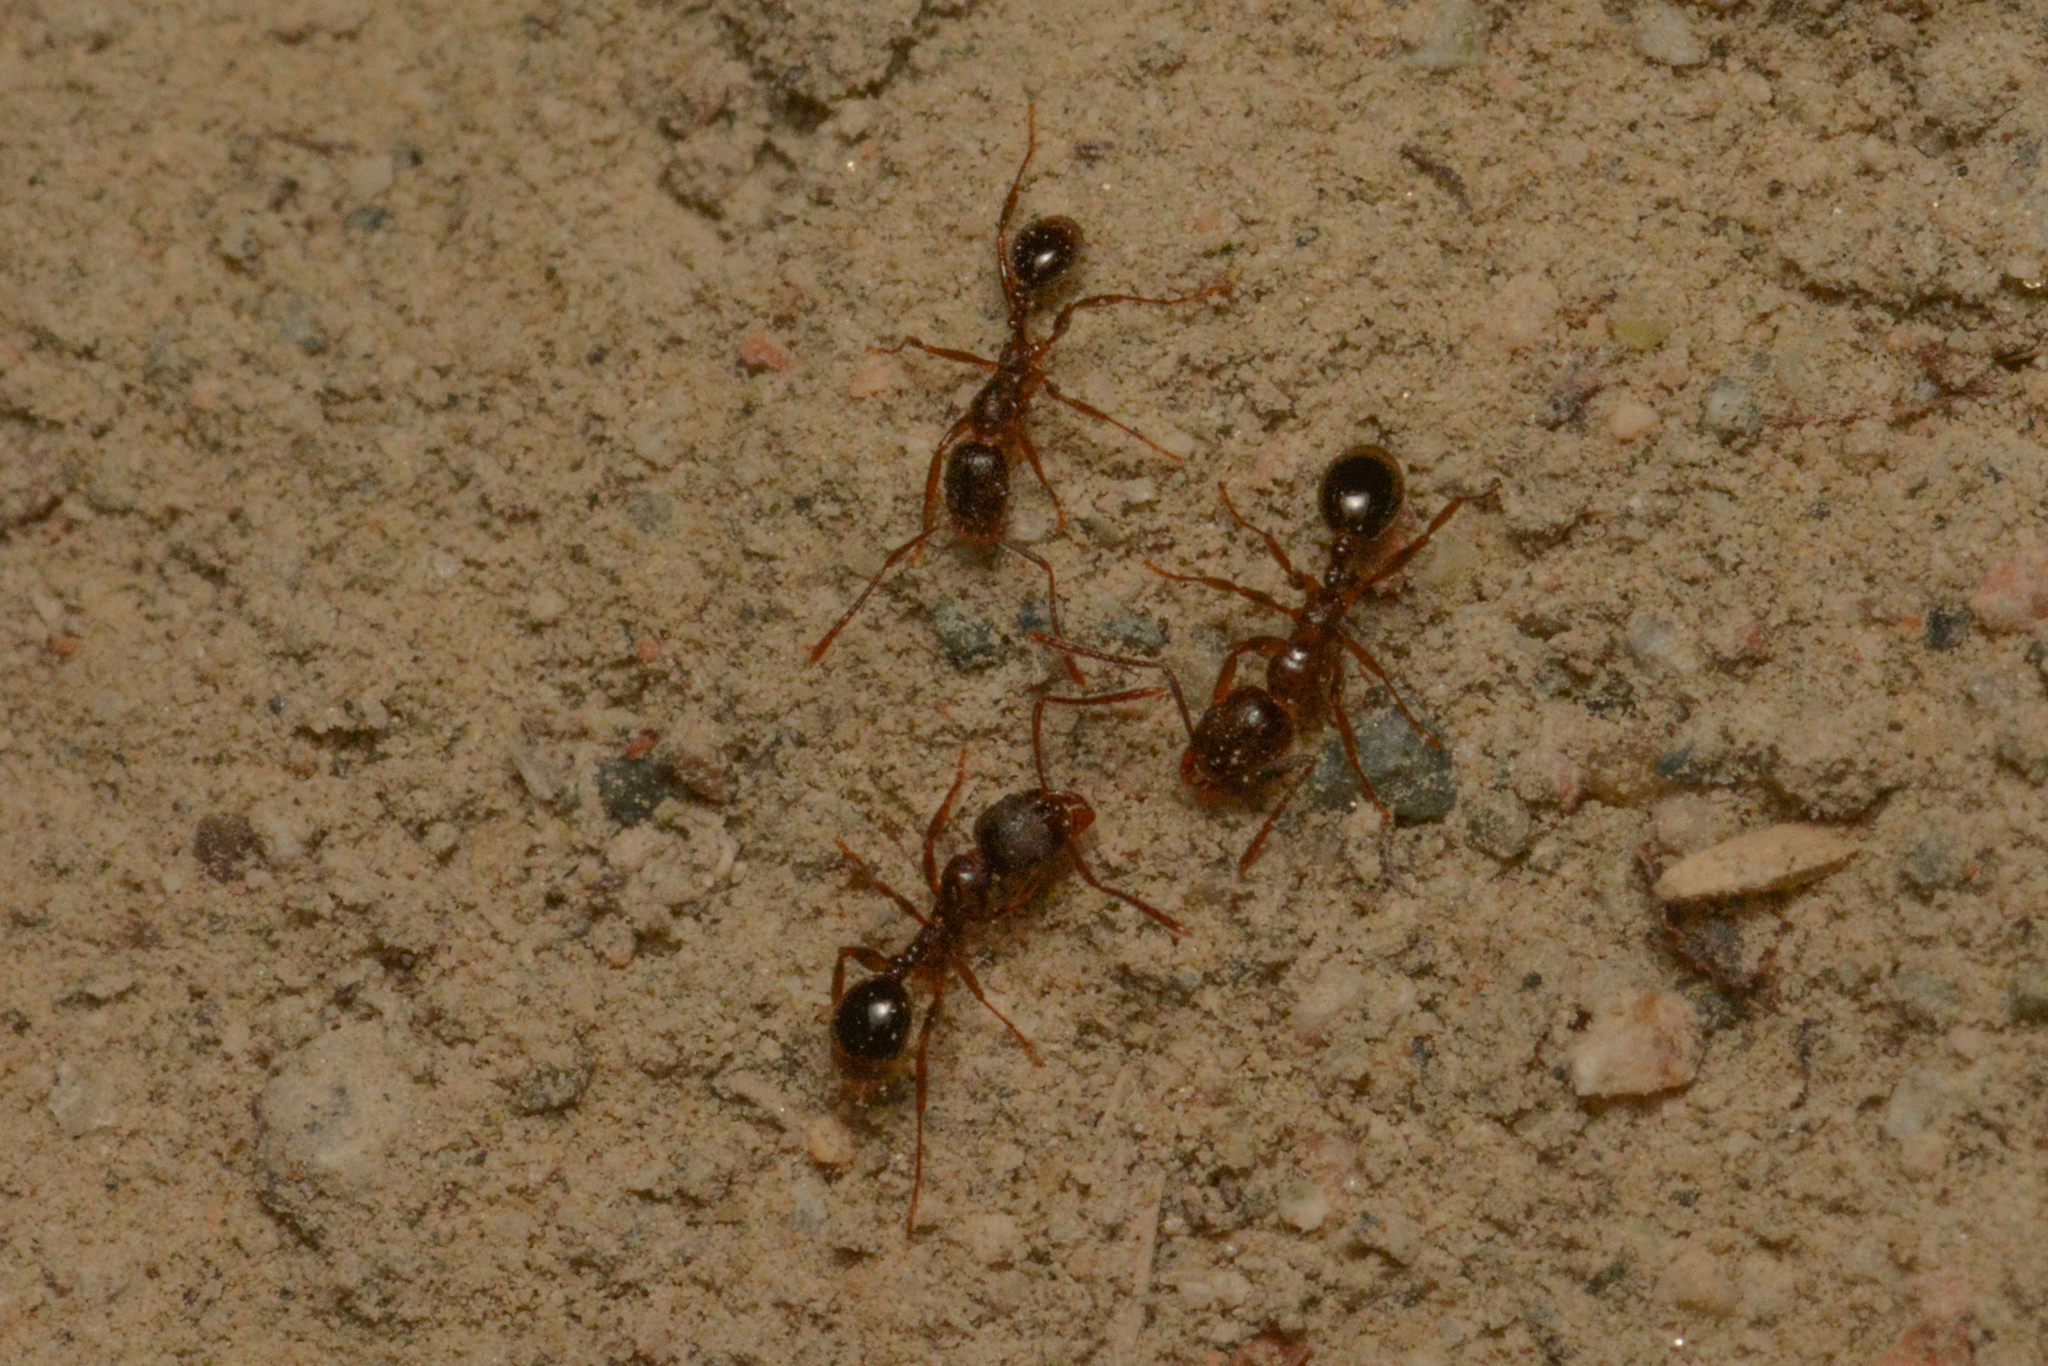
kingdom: Animalia
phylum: Arthropoda
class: Insecta
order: Hymenoptera
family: Formicidae
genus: Aphaenogaster
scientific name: Aphaenogaster occidentalis
